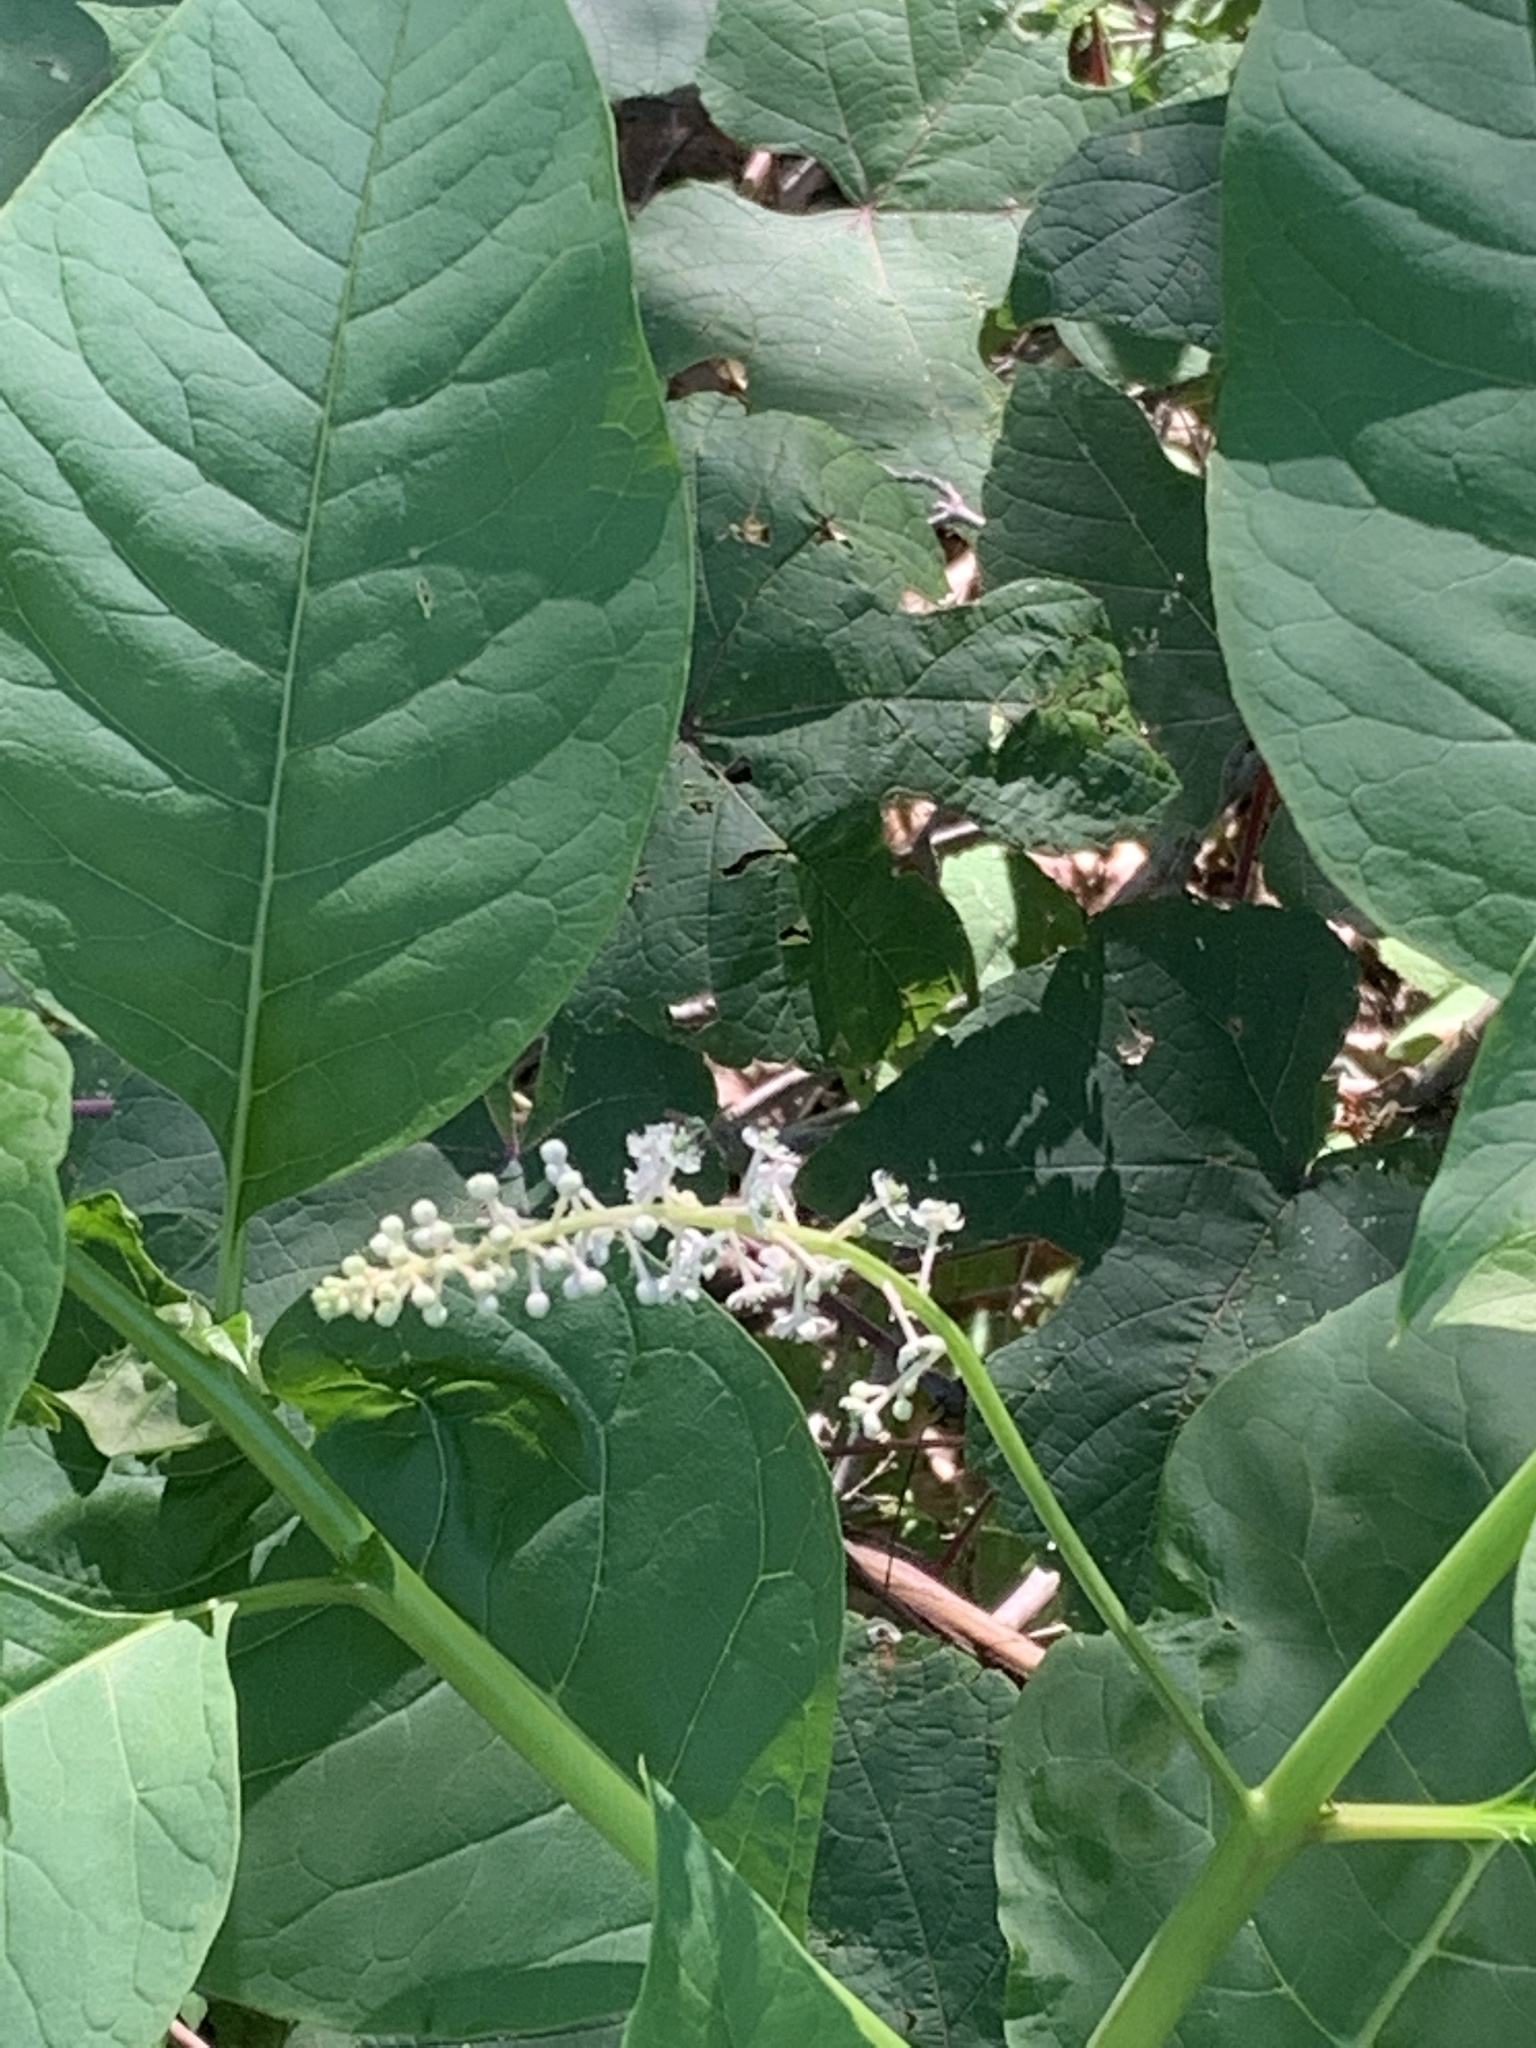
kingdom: Plantae
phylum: Tracheophyta
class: Magnoliopsida
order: Caryophyllales
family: Phytolaccaceae
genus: Phytolacca
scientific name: Phytolacca americana
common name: American pokeweed
